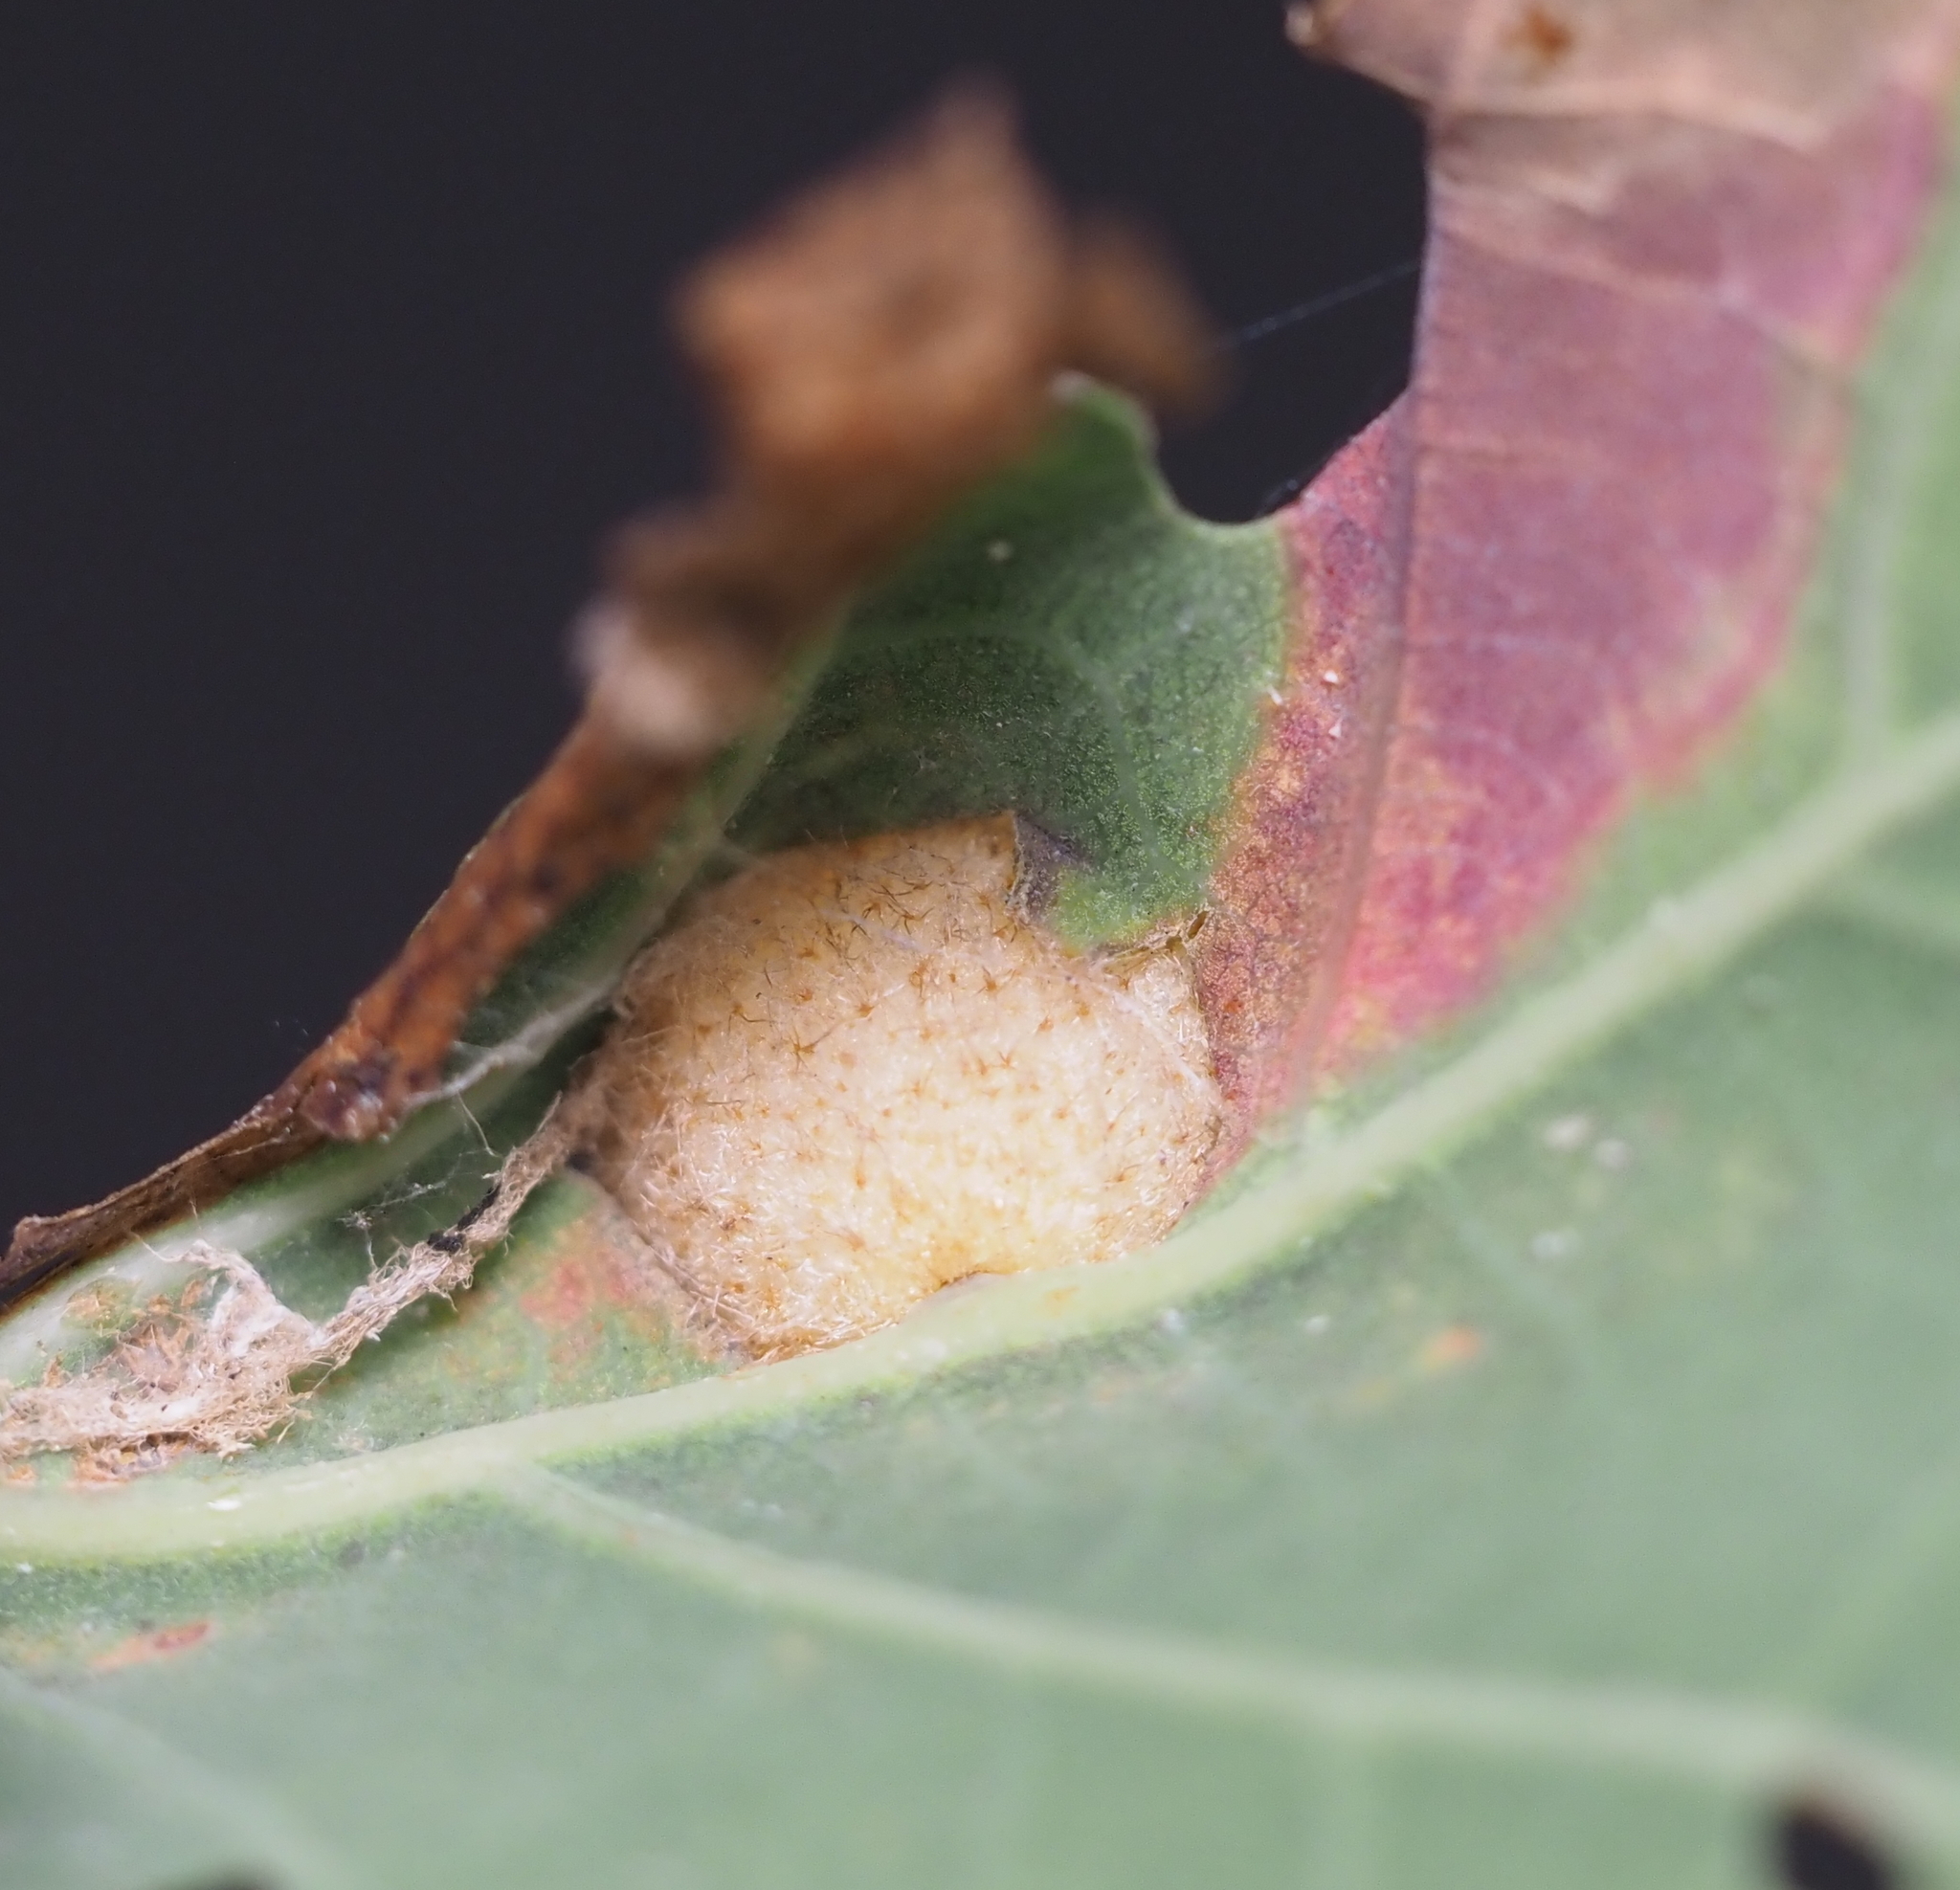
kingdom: Animalia
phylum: Arthropoda
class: Insecta
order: Hymenoptera
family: Cynipidae
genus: Philonix
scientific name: Philonix fulvicollis
